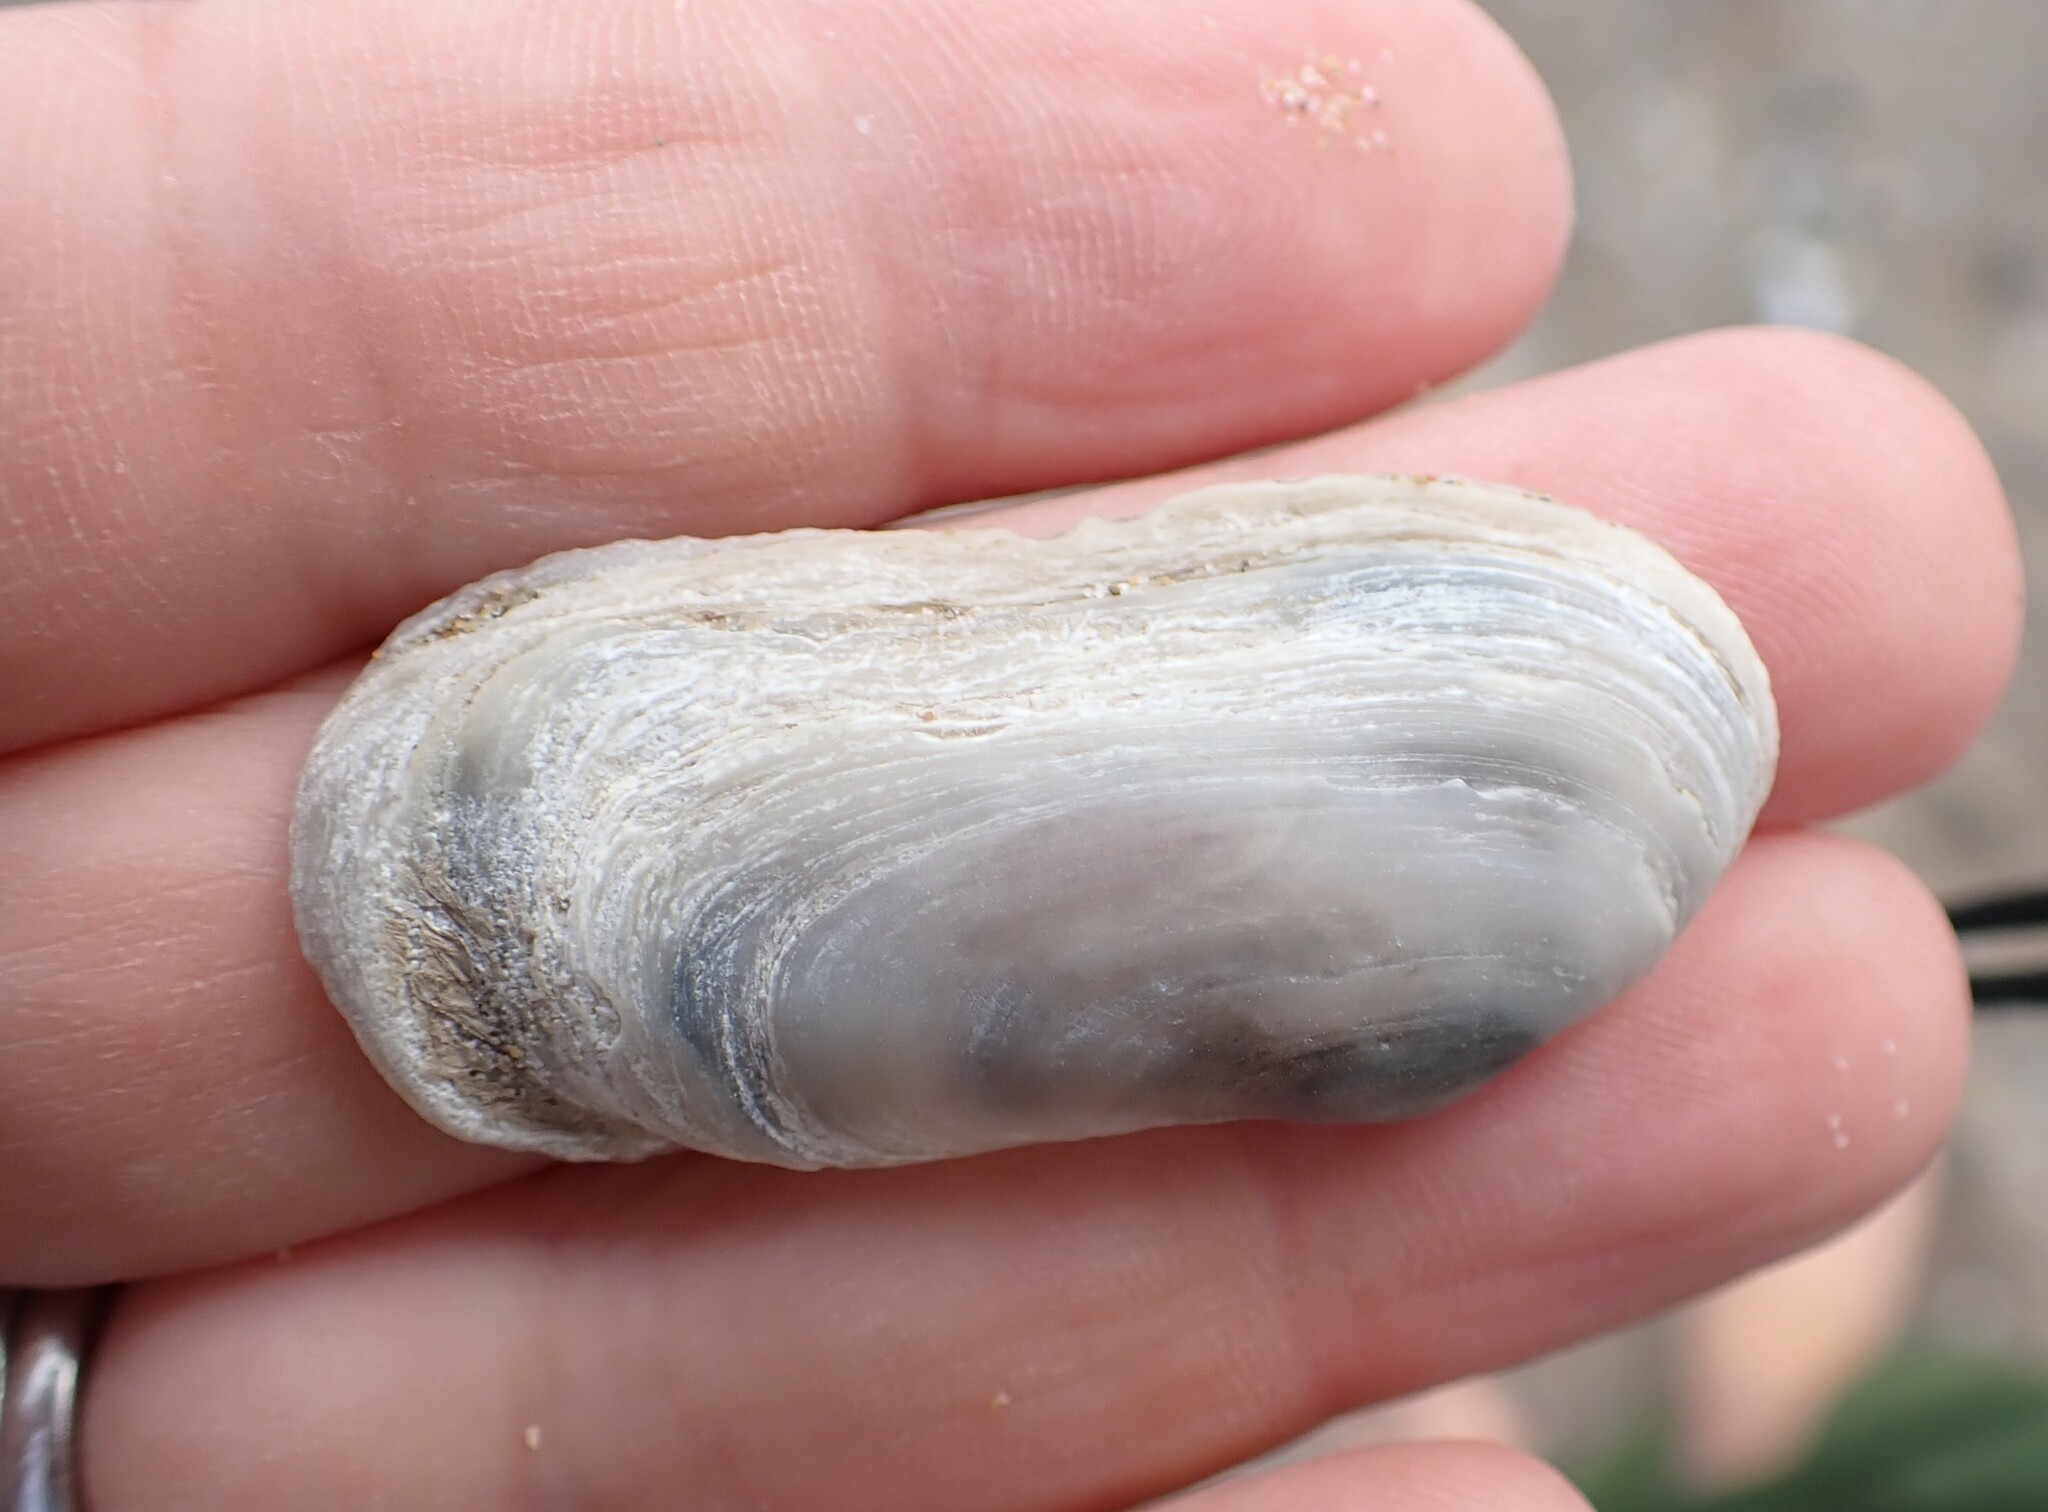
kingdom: Animalia
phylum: Mollusca
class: Bivalvia
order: Venerida
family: Mactridae
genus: Lutraria
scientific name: Lutraria oblonga
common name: Oblong otter clam
